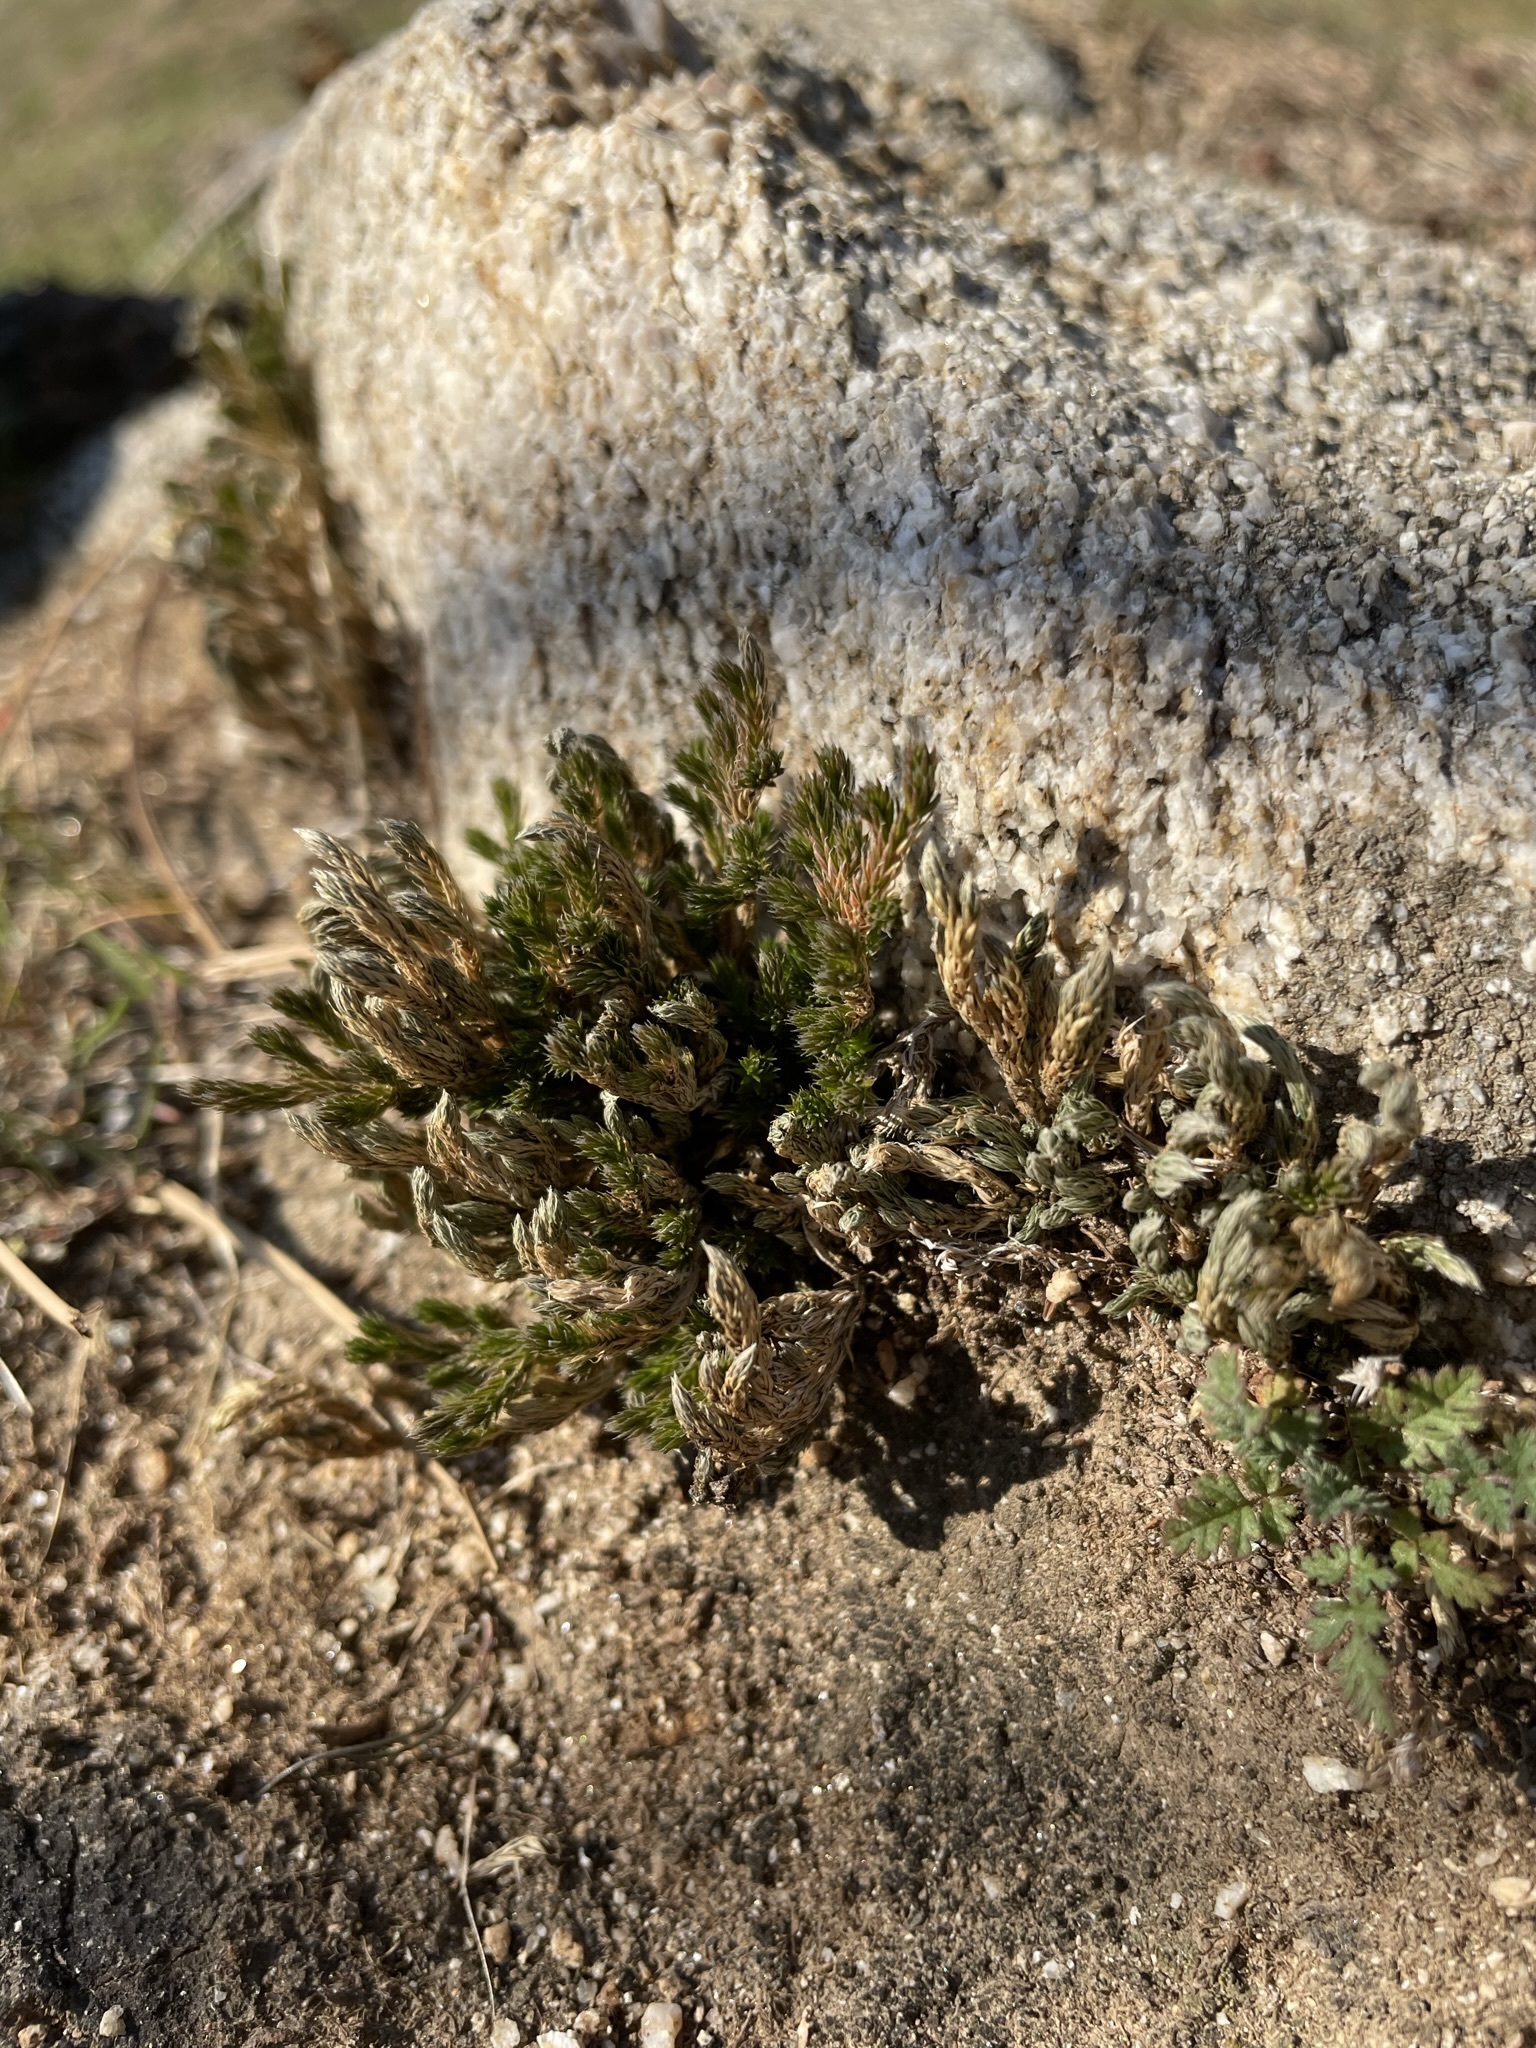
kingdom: Plantae
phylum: Tracheophyta
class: Lycopodiopsida
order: Selaginellales
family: Selaginellaceae
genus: Selaginella
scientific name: Selaginella bigelovii
